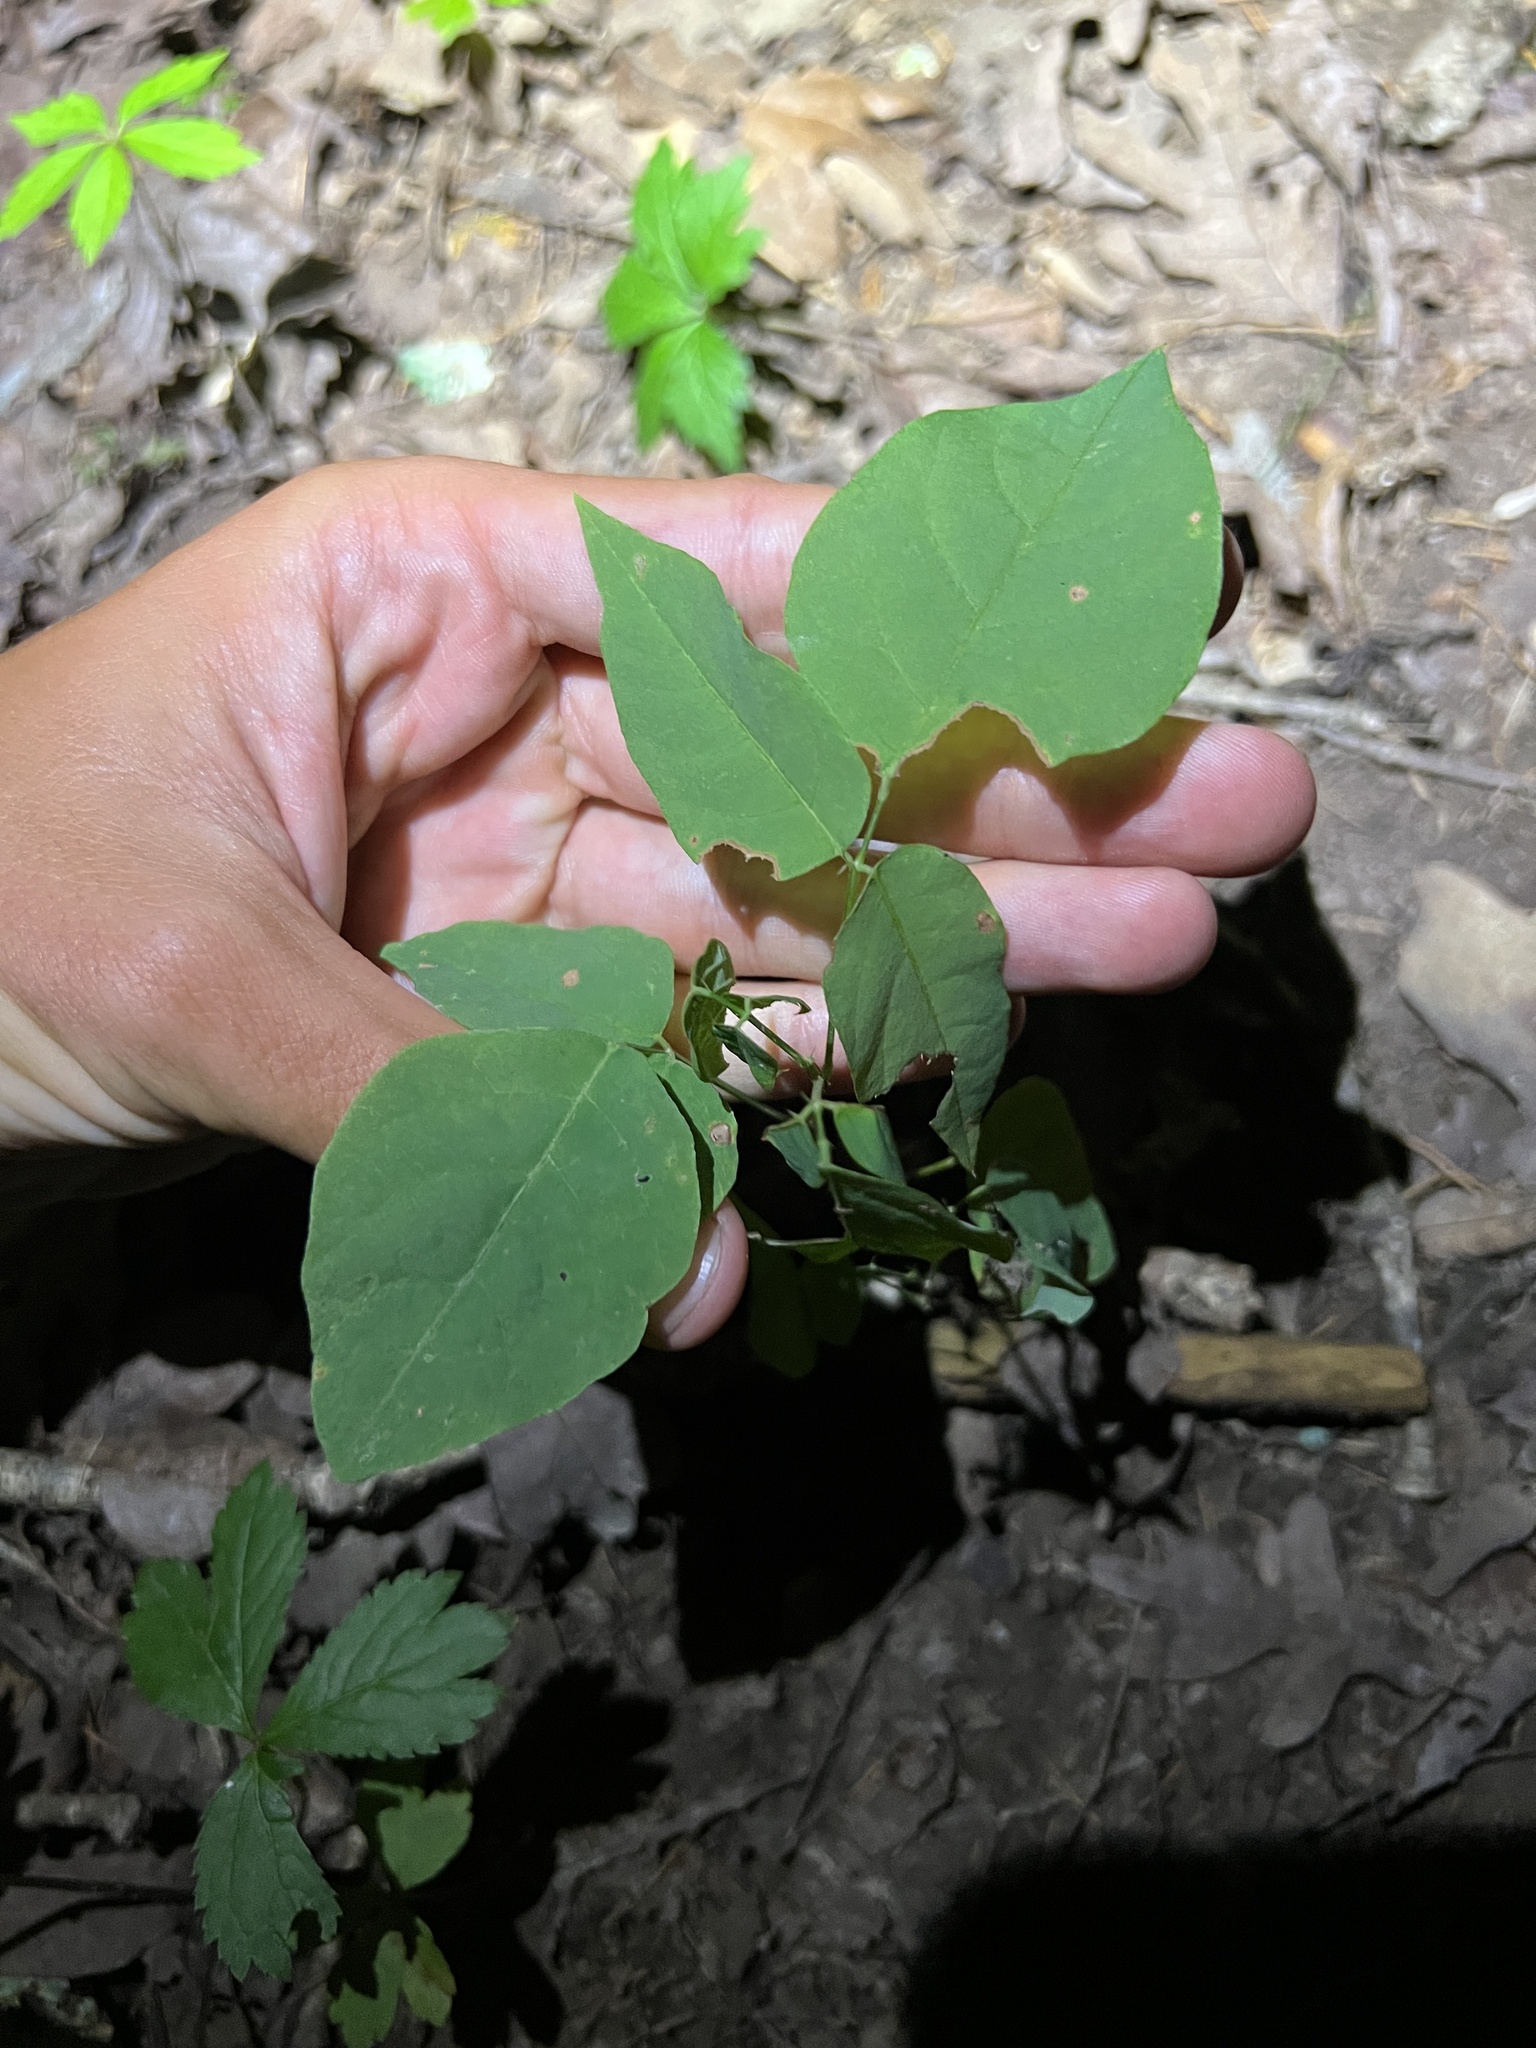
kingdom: Plantae
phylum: Tracheophyta
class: Magnoliopsida
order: Fabales
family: Fabaceae
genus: Desmodium
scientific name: Desmodium laevigatum
